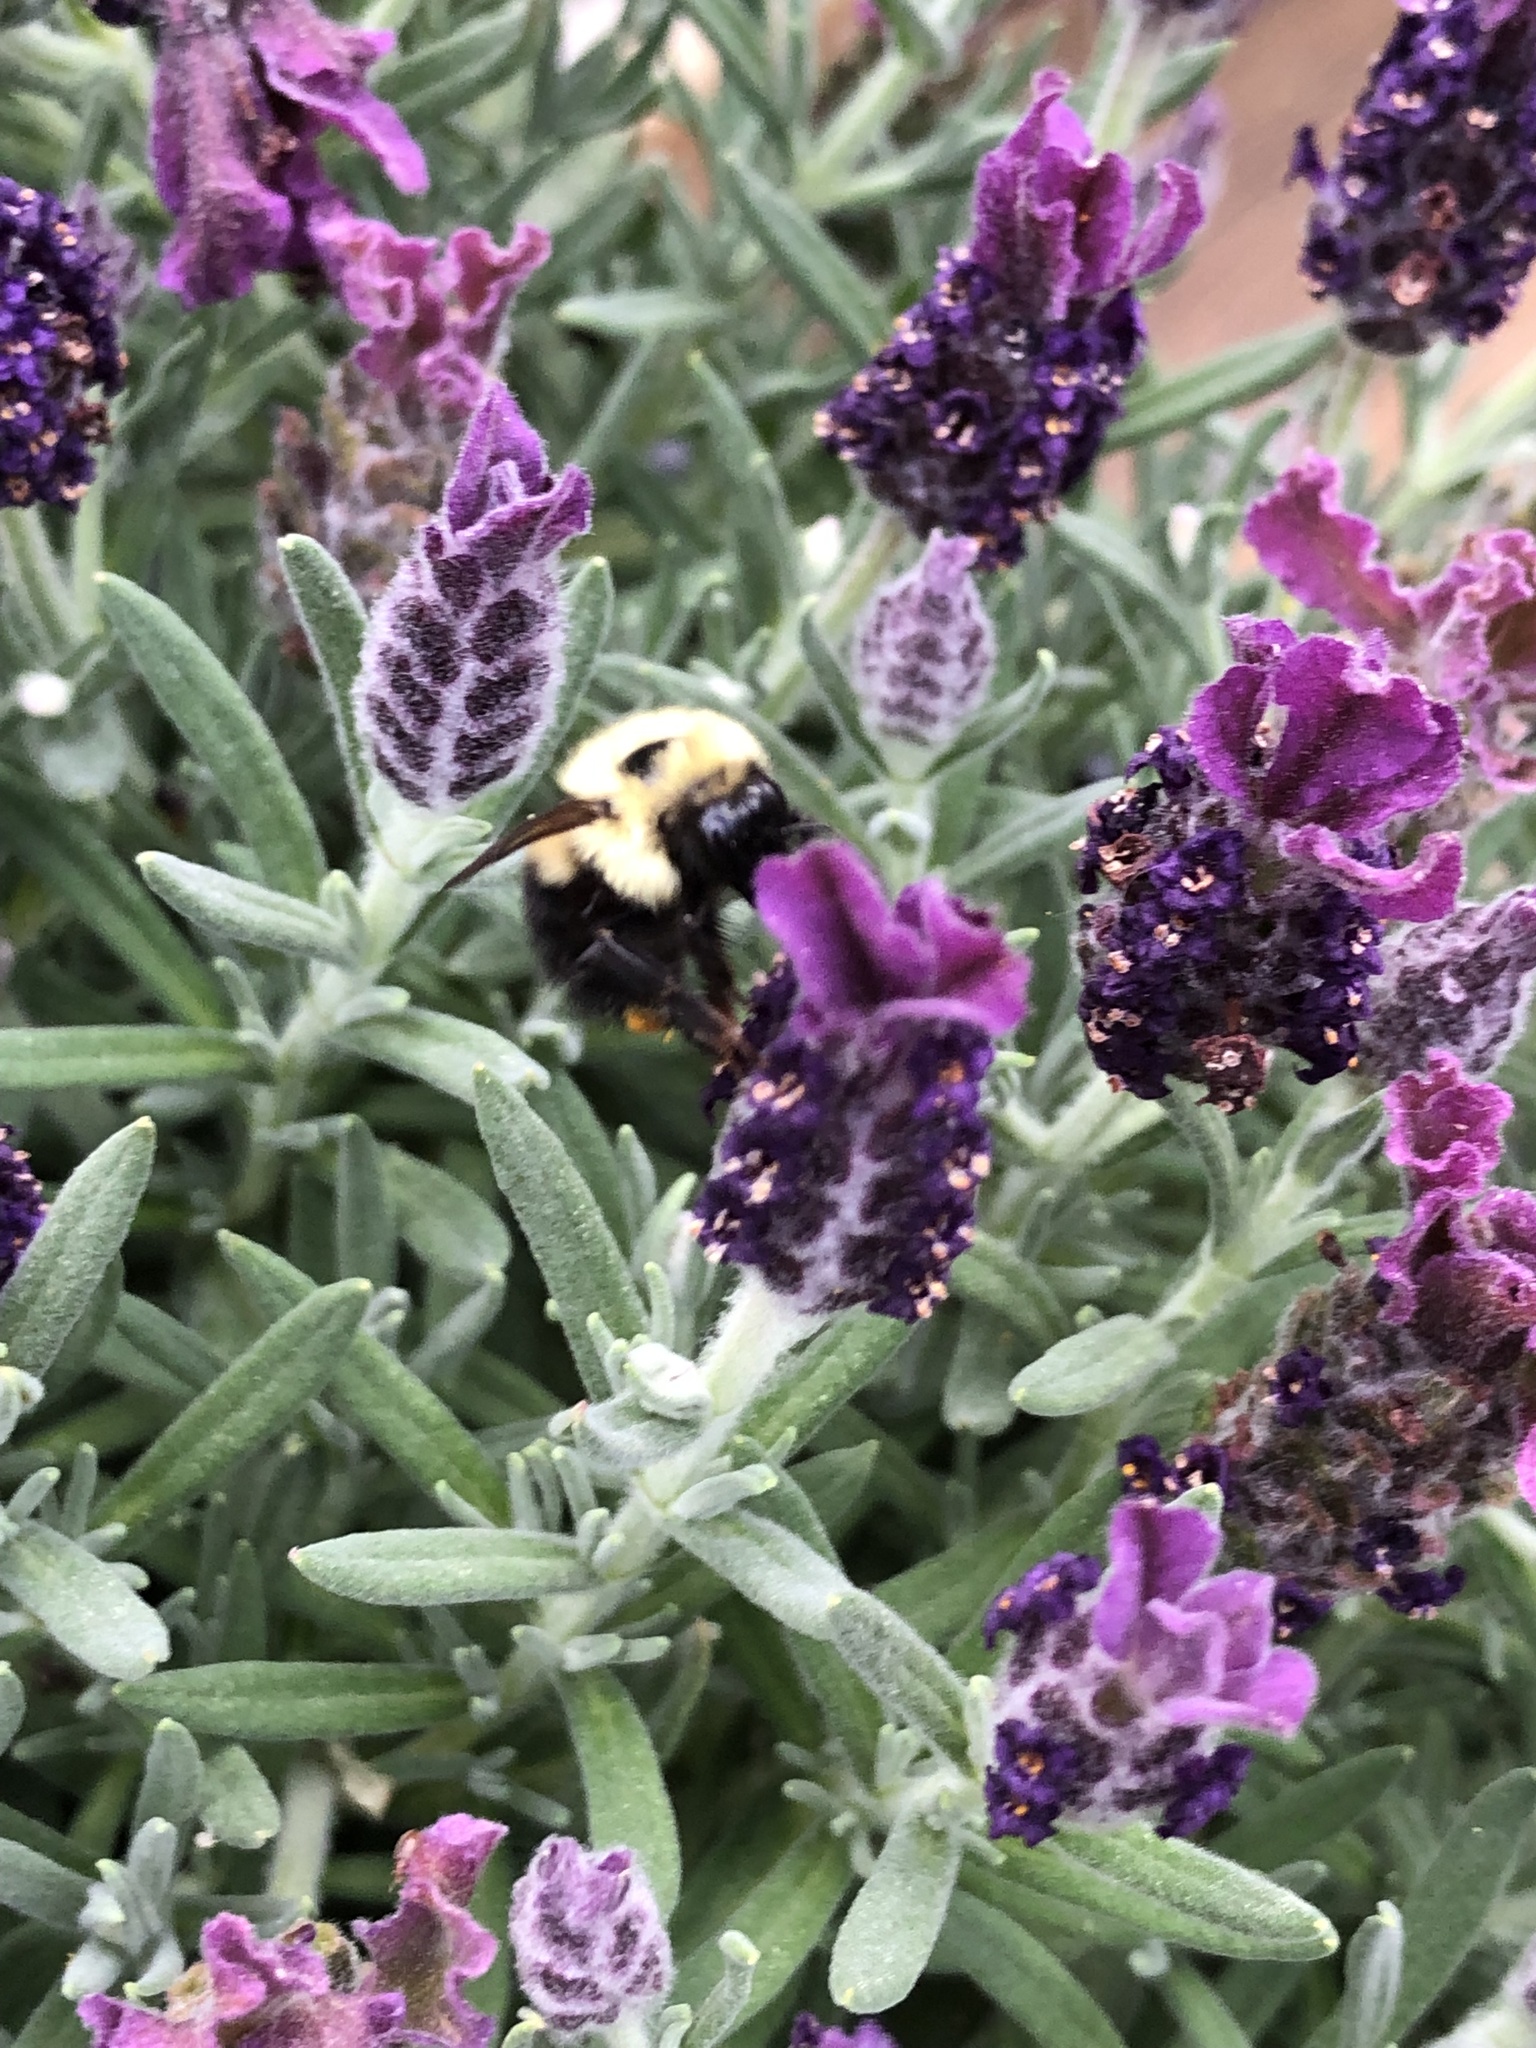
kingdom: Animalia
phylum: Arthropoda
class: Insecta
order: Hymenoptera
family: Apidae
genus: Bombus
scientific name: Bombus bimaculatus
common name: Two-spotted bumble bee
